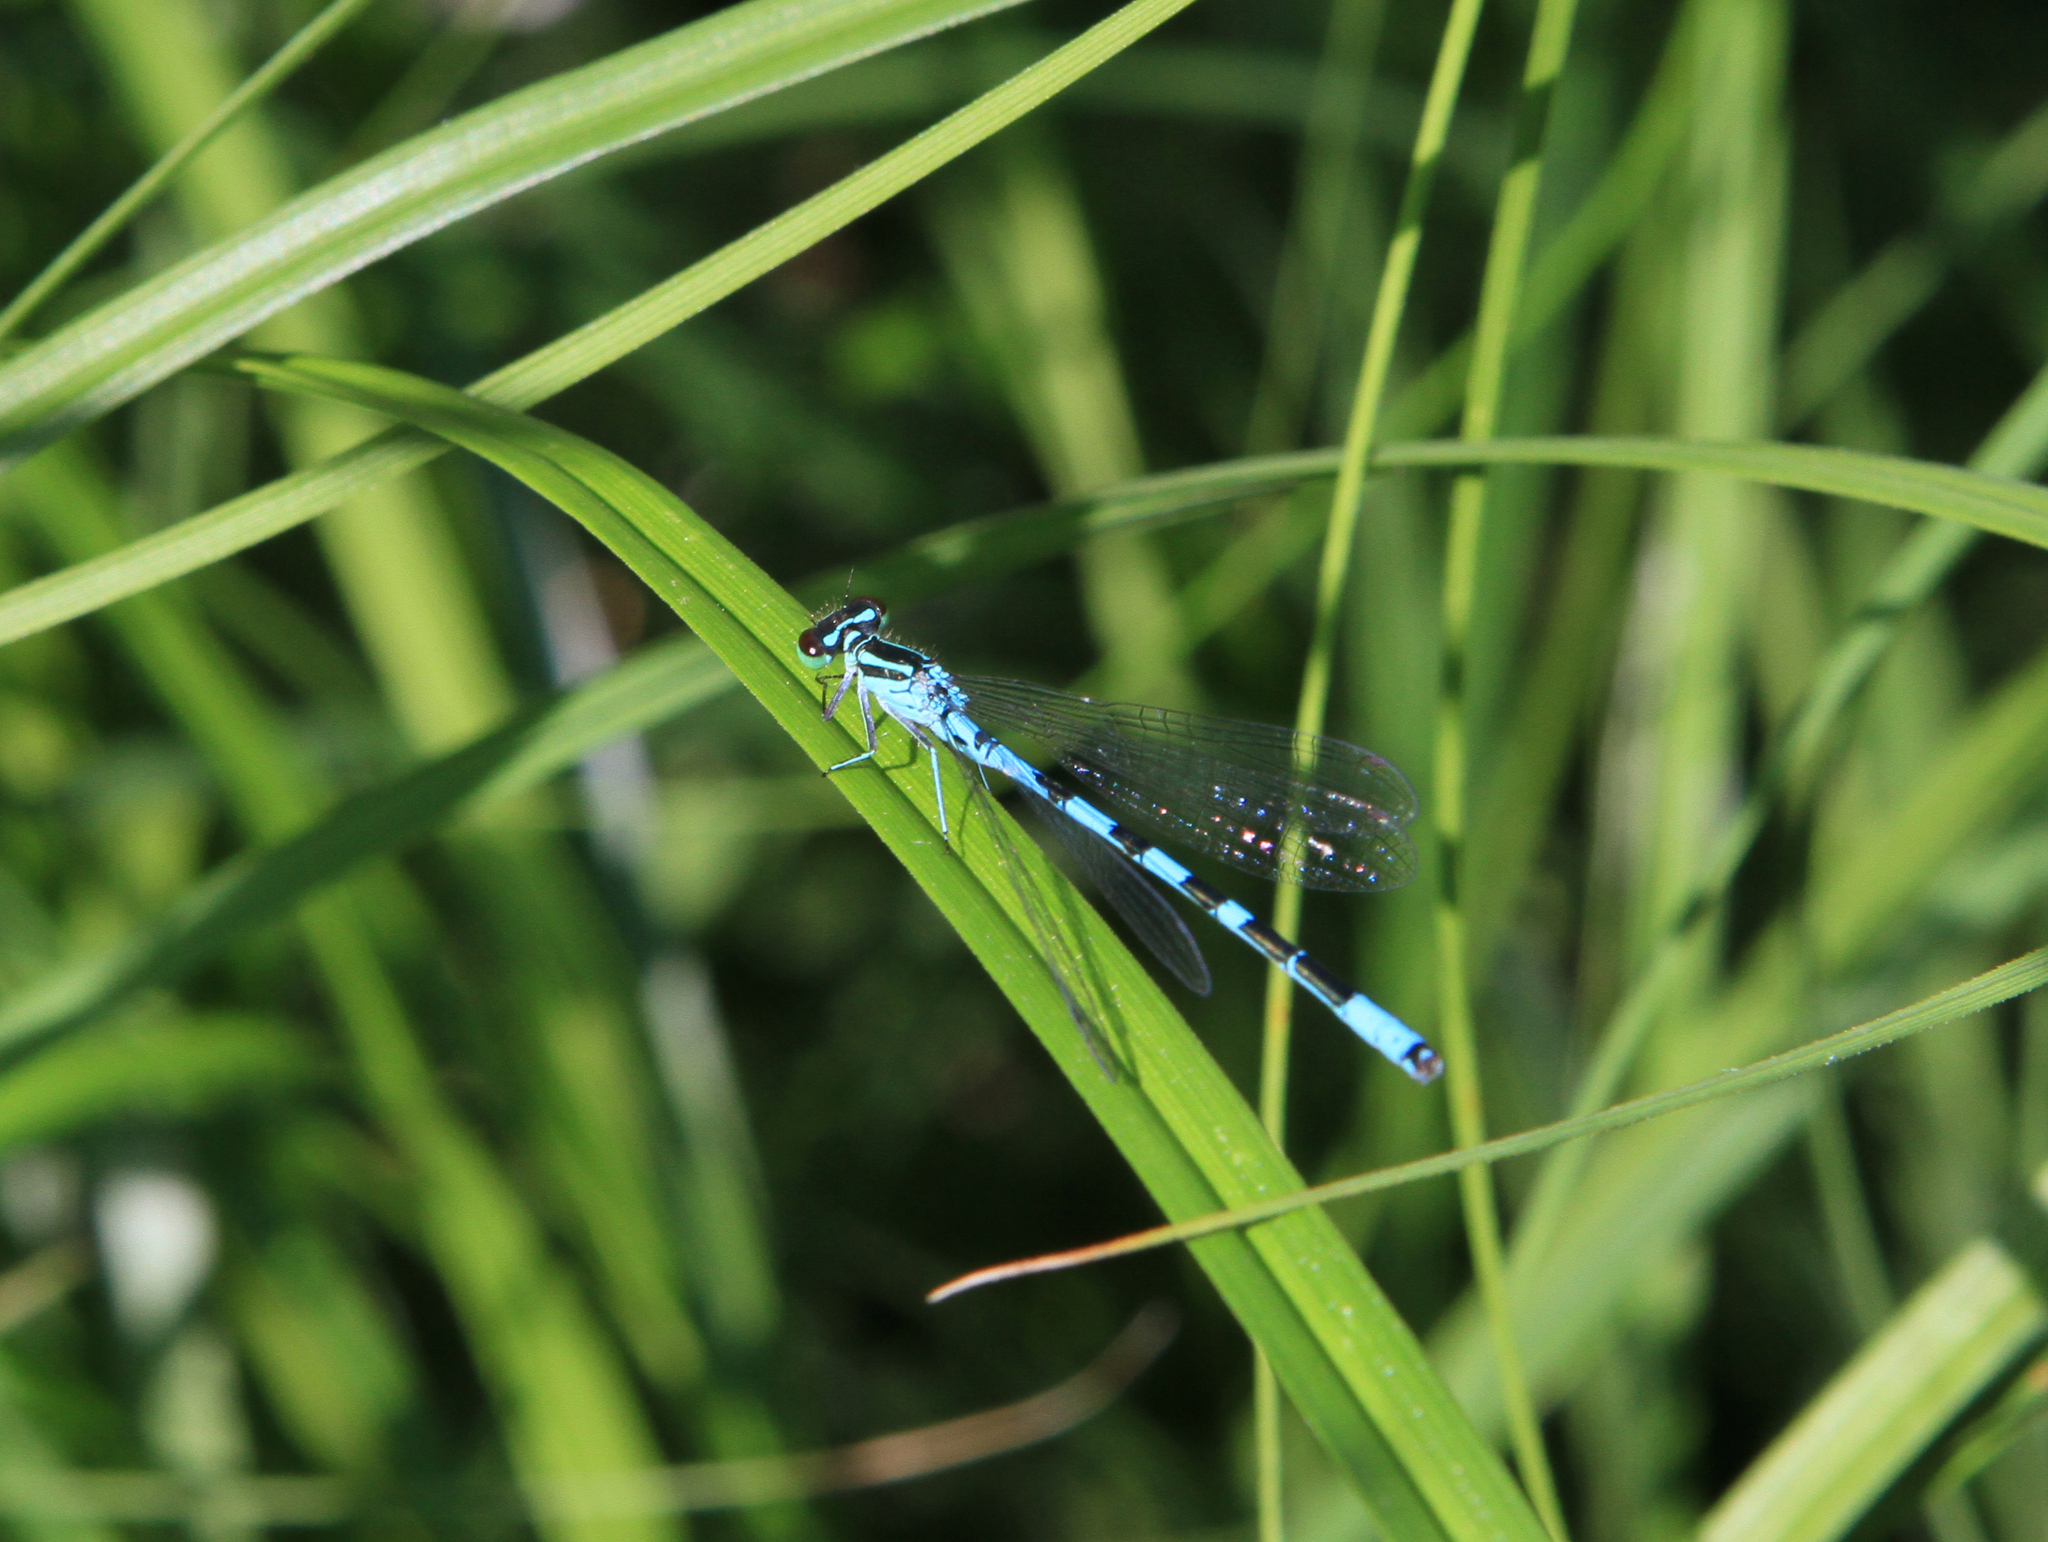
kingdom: Animalia
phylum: Arthropoda
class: Insecta
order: Odonata
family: Coenagrionidae
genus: Coenagrion
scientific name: Coenagrion hastulatum
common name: Spearhead bluet
